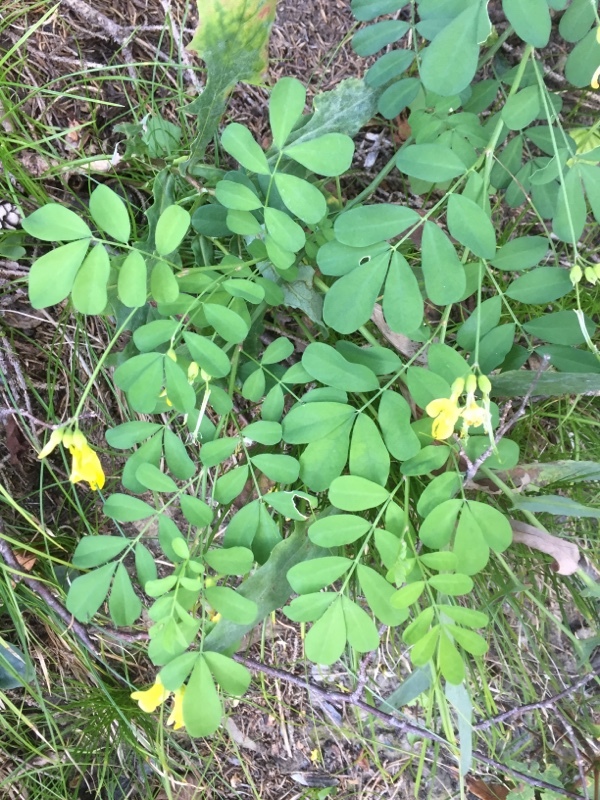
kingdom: Plantae
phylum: Tracheophyta
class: Magnoliopsida
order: Fabales
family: Fabaceae
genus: Hippocrepis
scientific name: Hippocrepis emerus
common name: Scorpion senna
